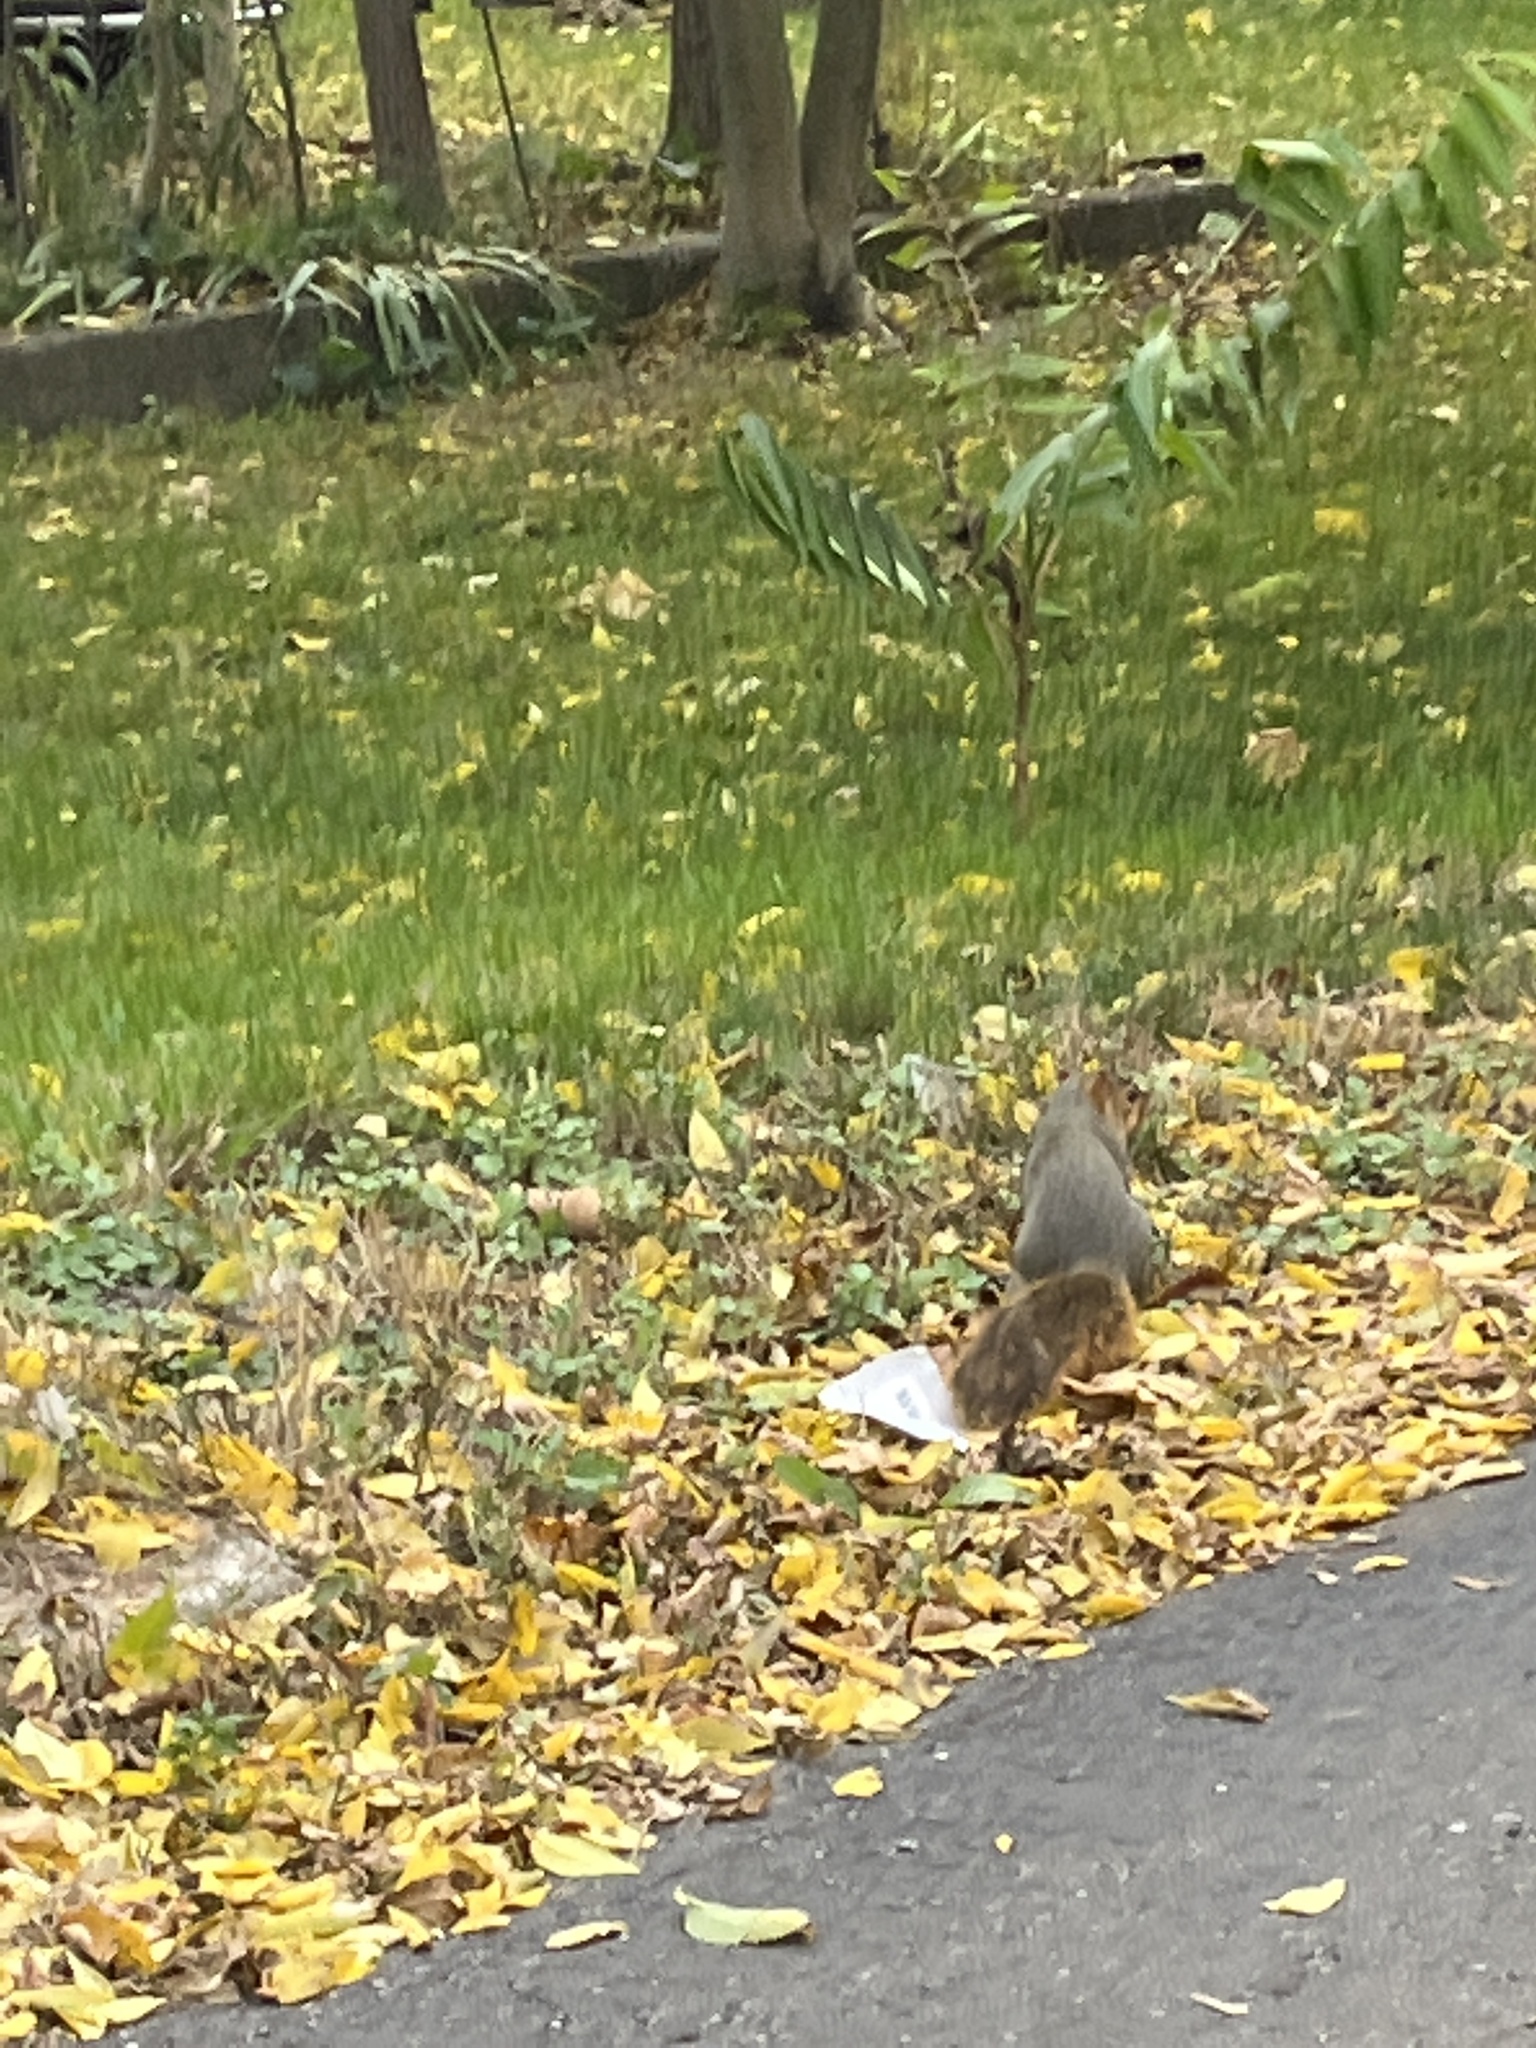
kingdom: Animalia
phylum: Chordata
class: Mammalia
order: Rodentia
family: Sciuridae
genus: Sciurus
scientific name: Sciurus niger
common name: Fox squirrel
